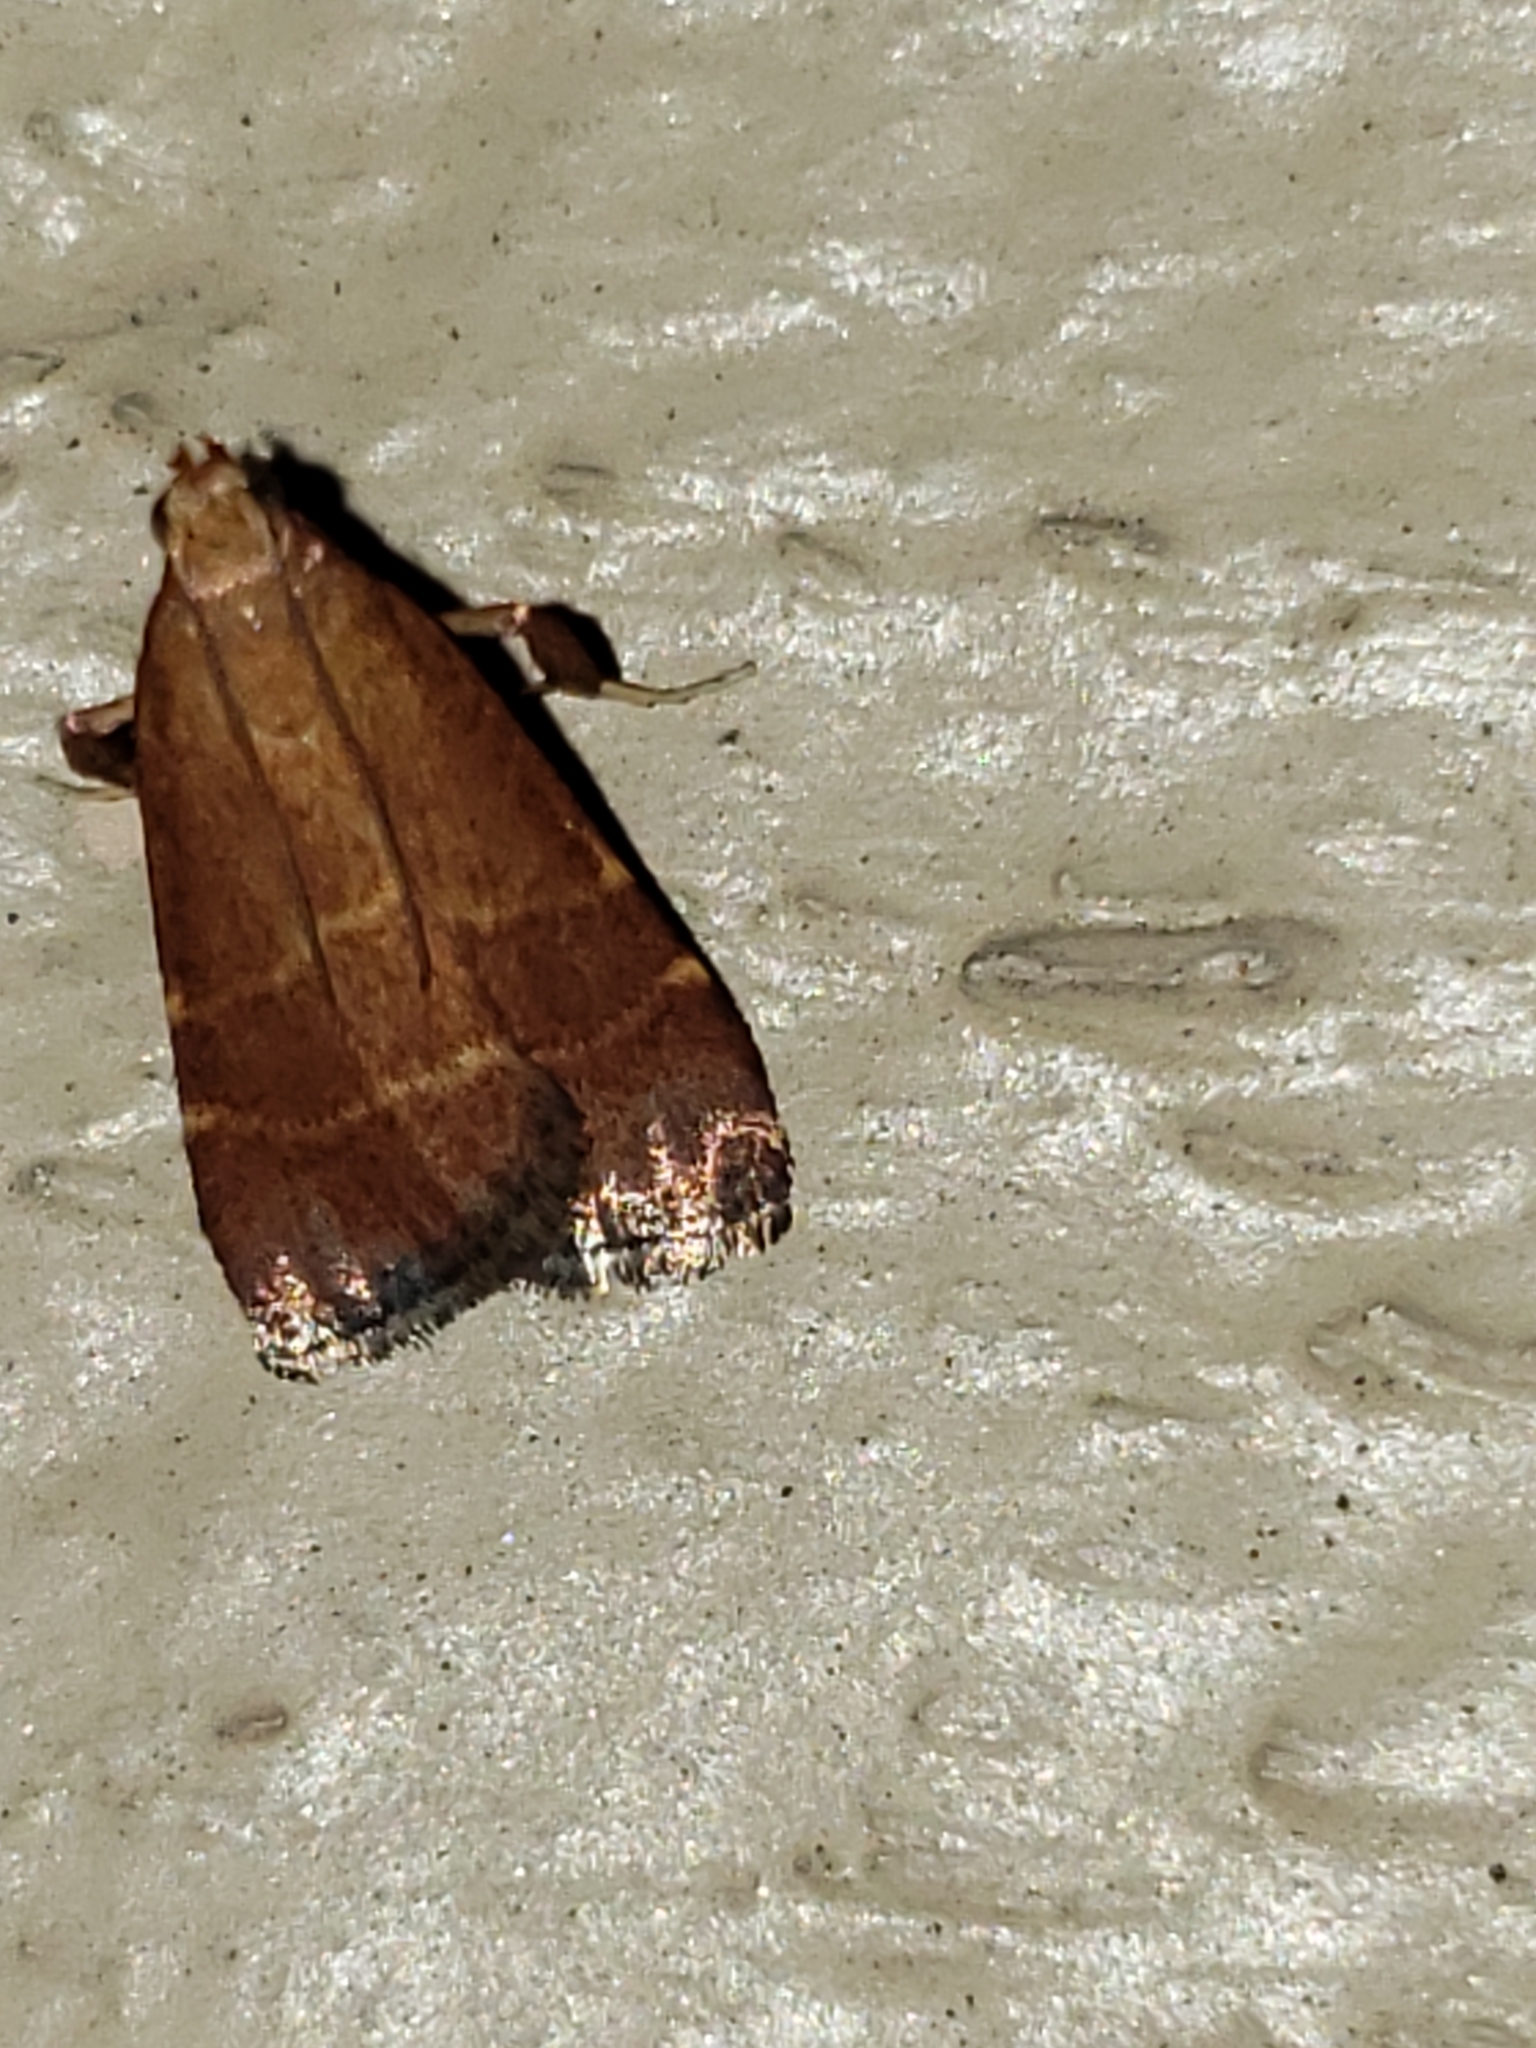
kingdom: Animalia
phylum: Arthropoda
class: Insecta
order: Lepidoptera
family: Pyralidae
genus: Arta
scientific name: Arta statalis
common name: Posturing arta moth
